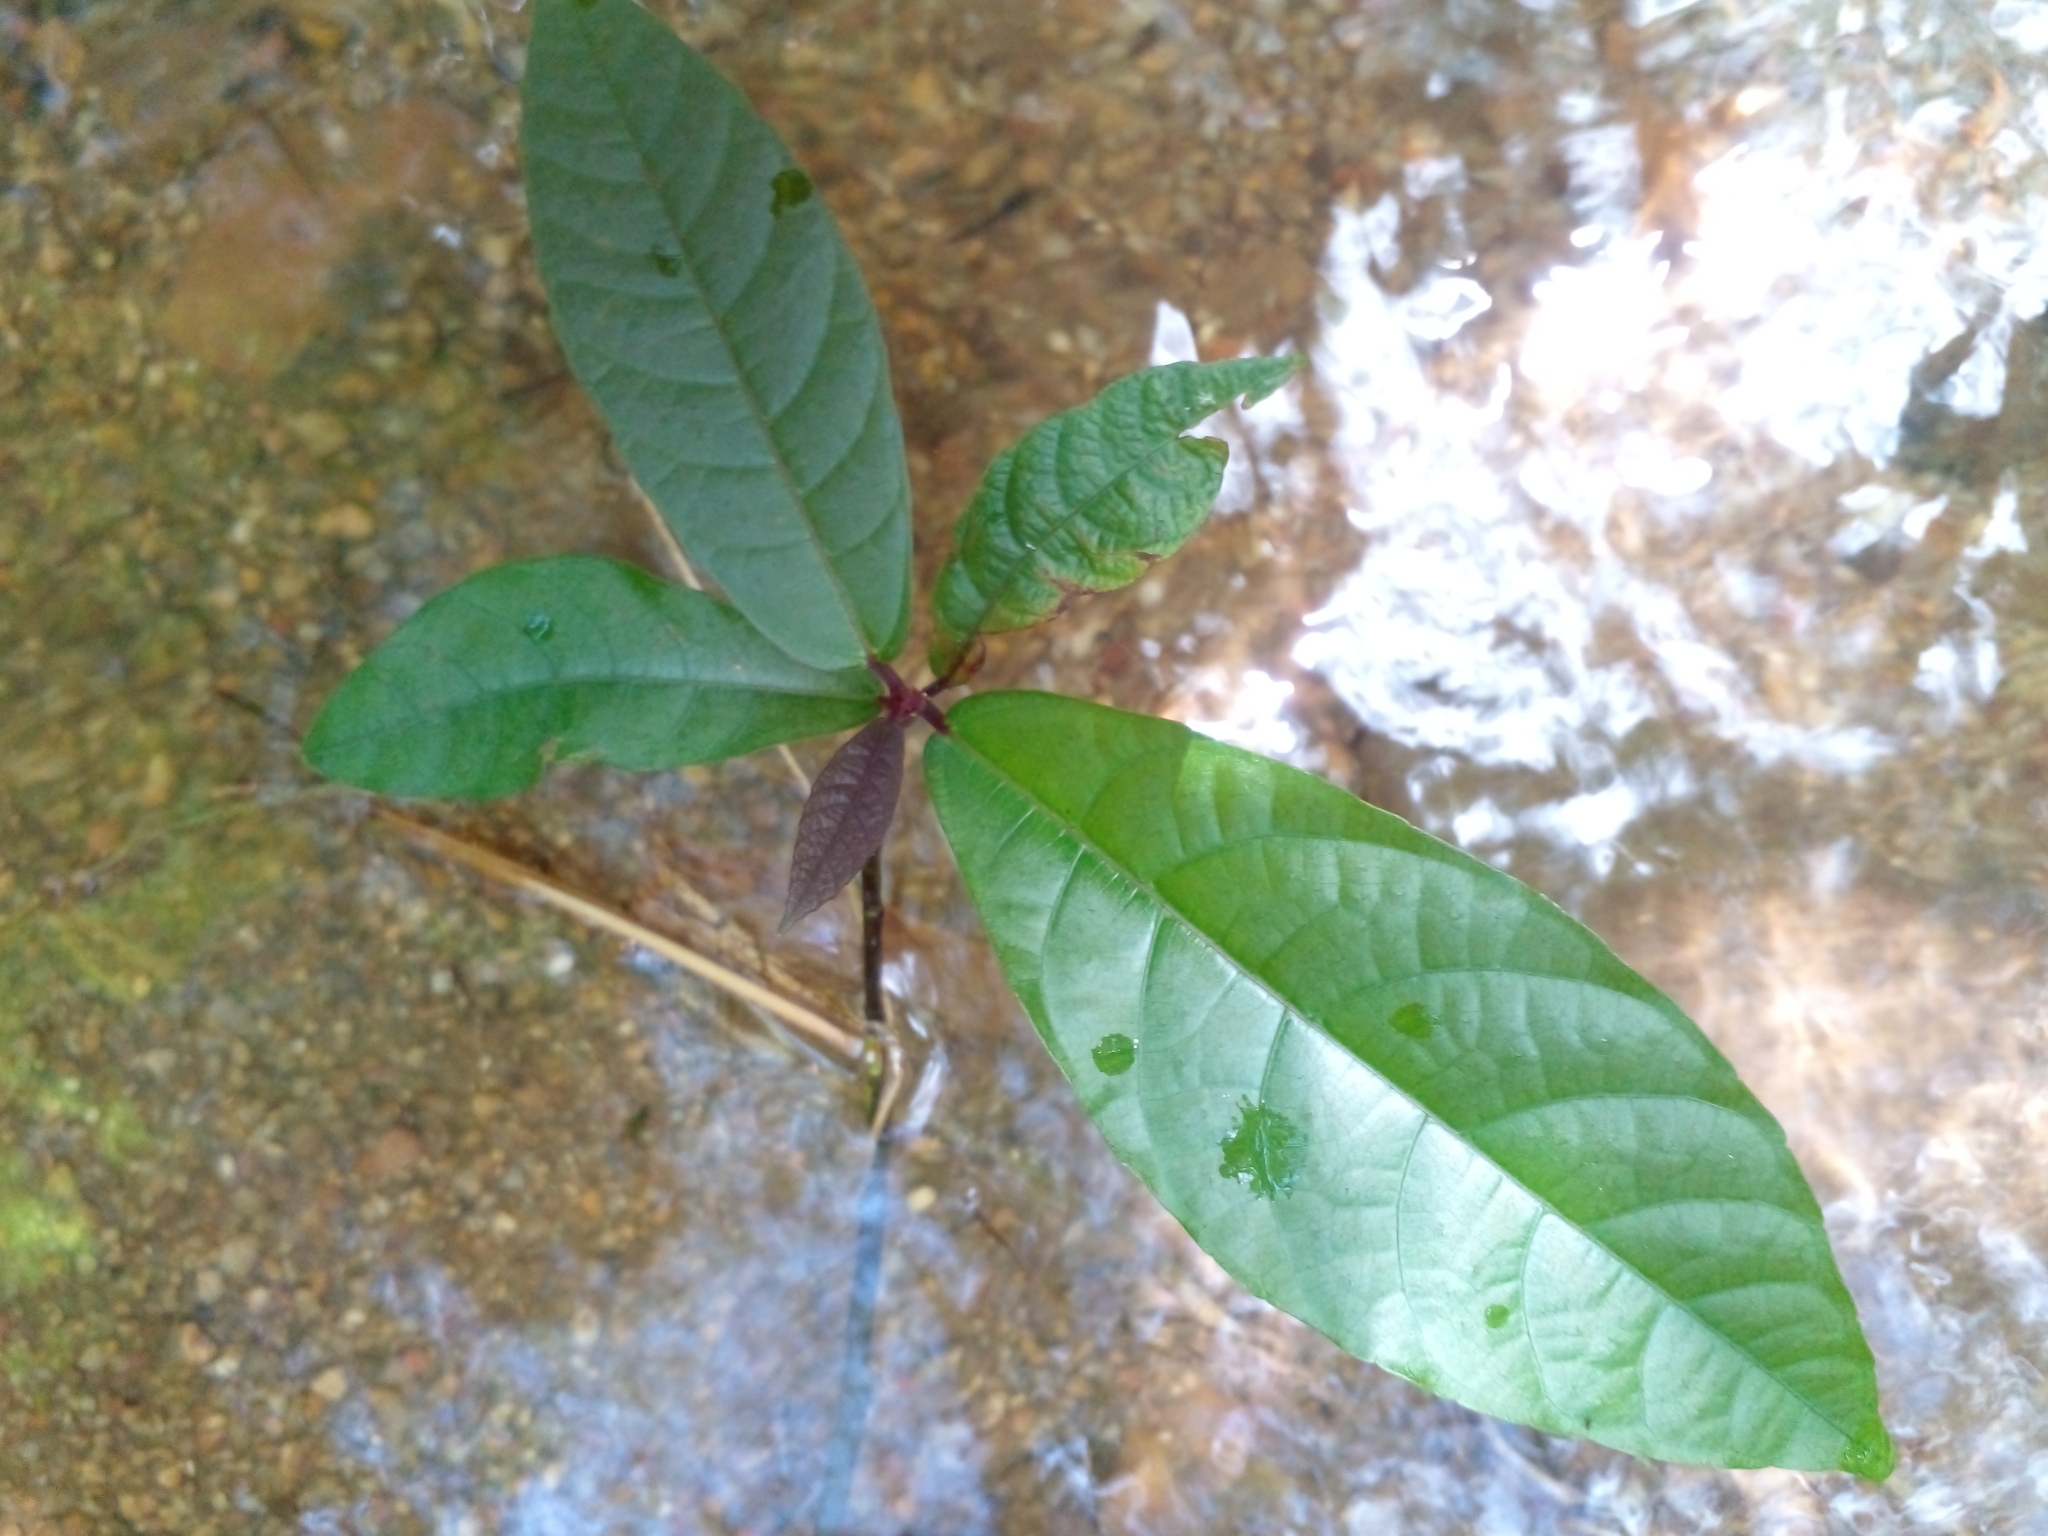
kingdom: Plantae
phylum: Tracheophyta
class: Magnoliopsida
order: Ericales
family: Lecythidaceae
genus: Barringtonia
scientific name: Barringtonia racemosa
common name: Brackwater mangrove
